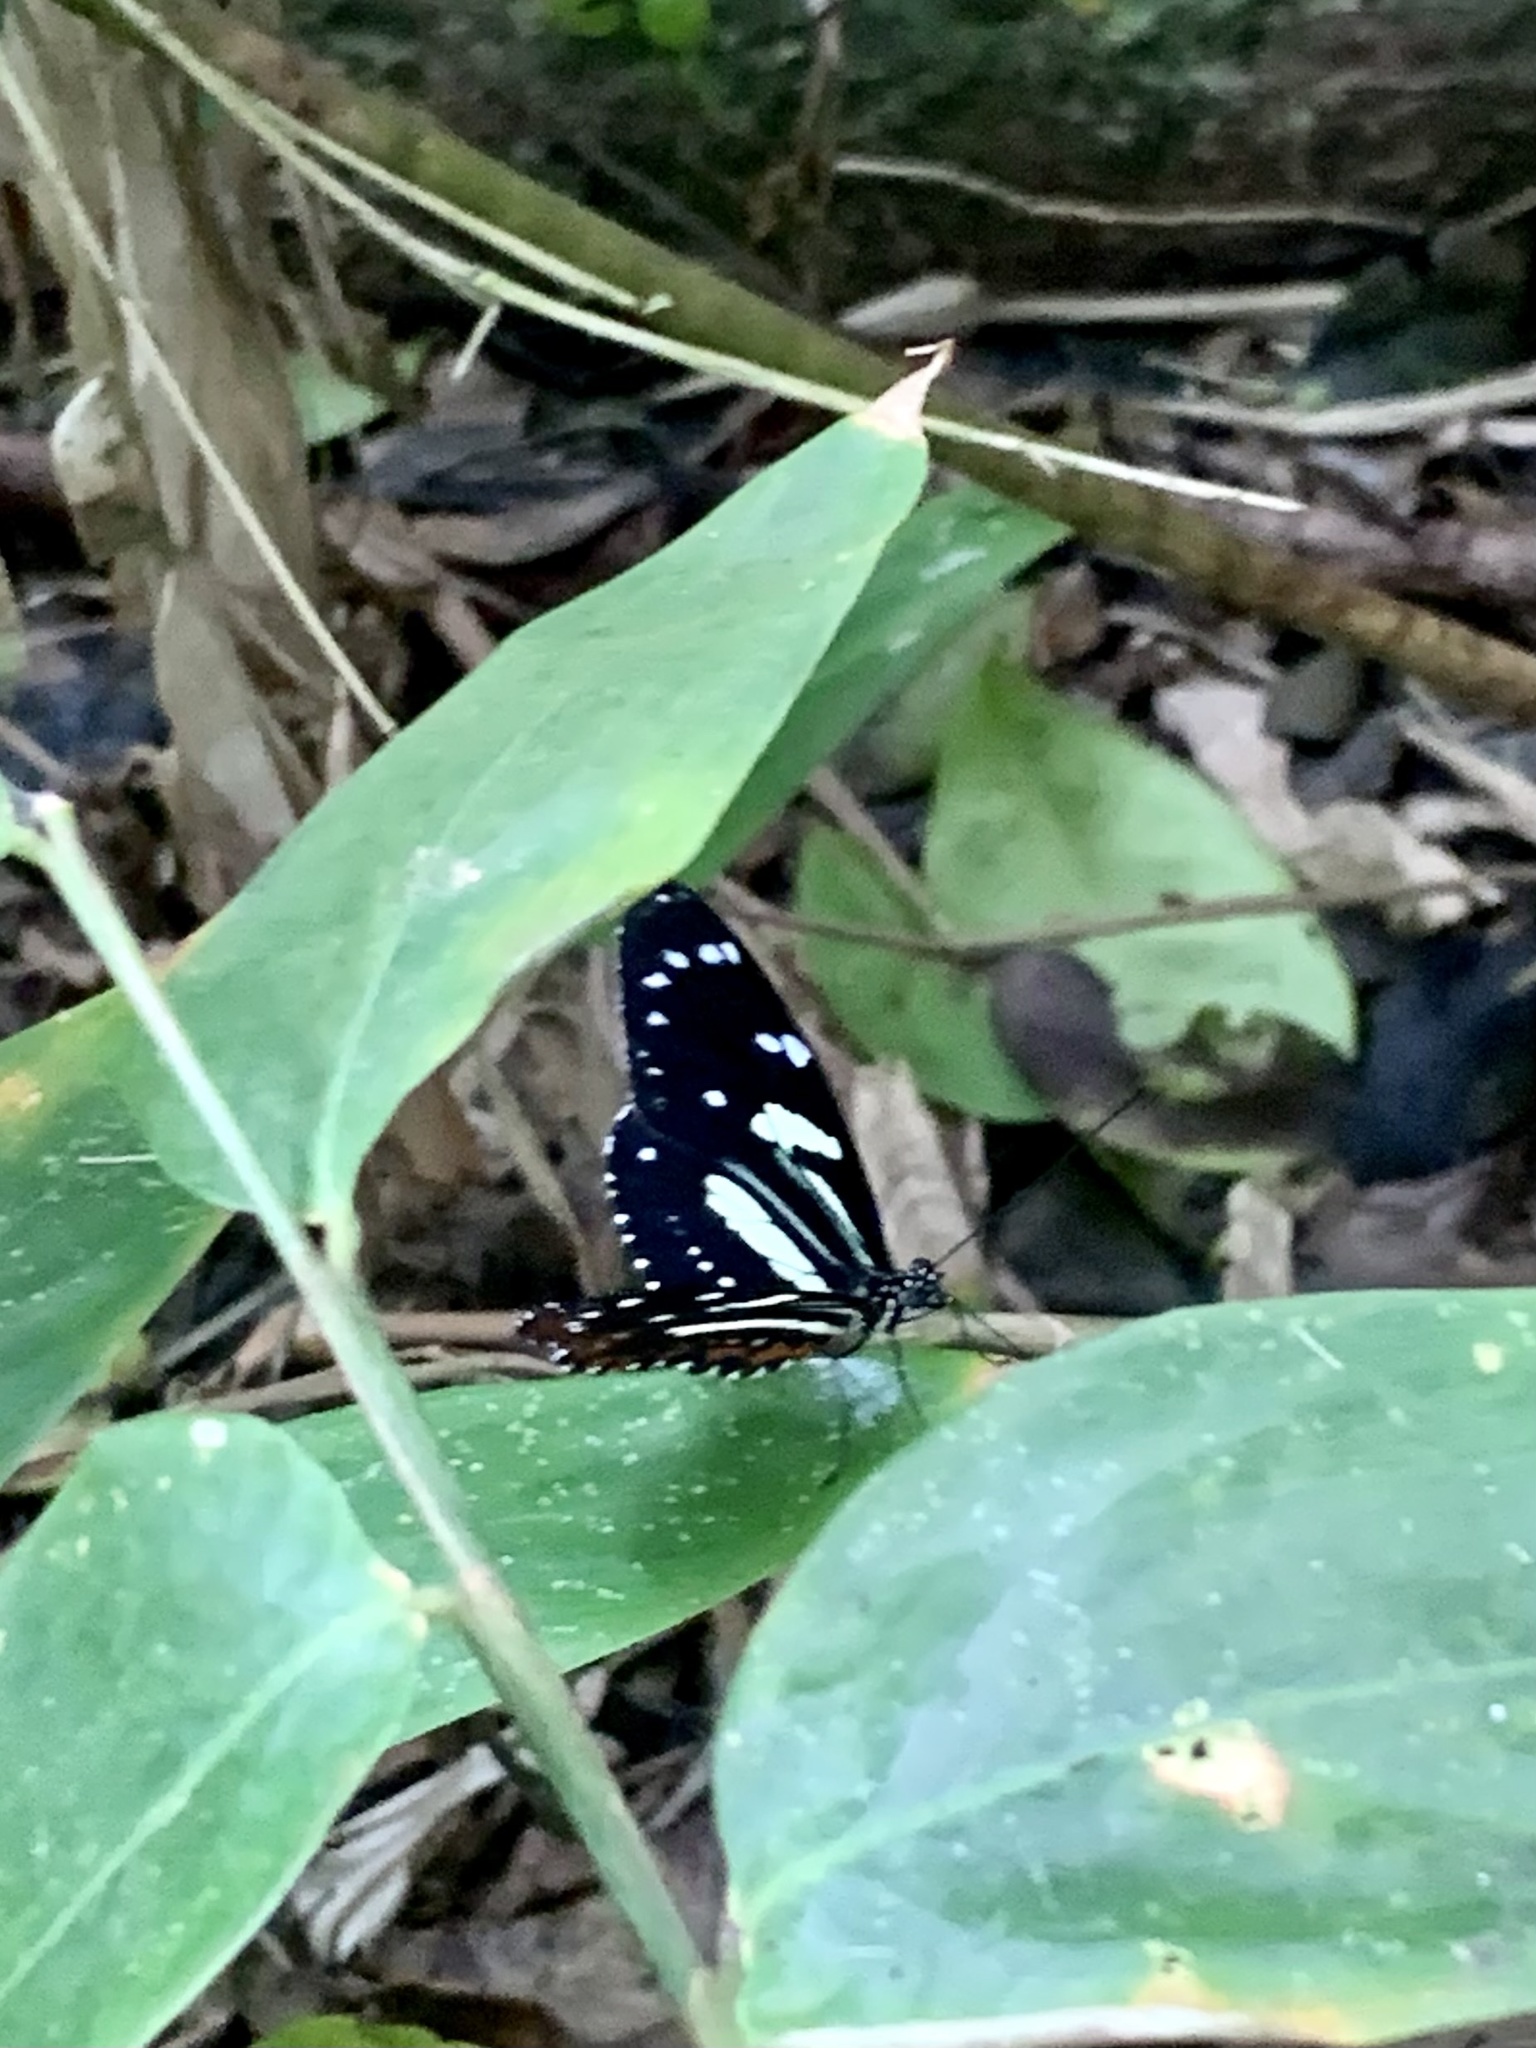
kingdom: Animalia
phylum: Arthropoda
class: Insecta
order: Lepidoptera
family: Nymphalidae
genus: Heliconius
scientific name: Heliconius atthis
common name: False zebra longwing
